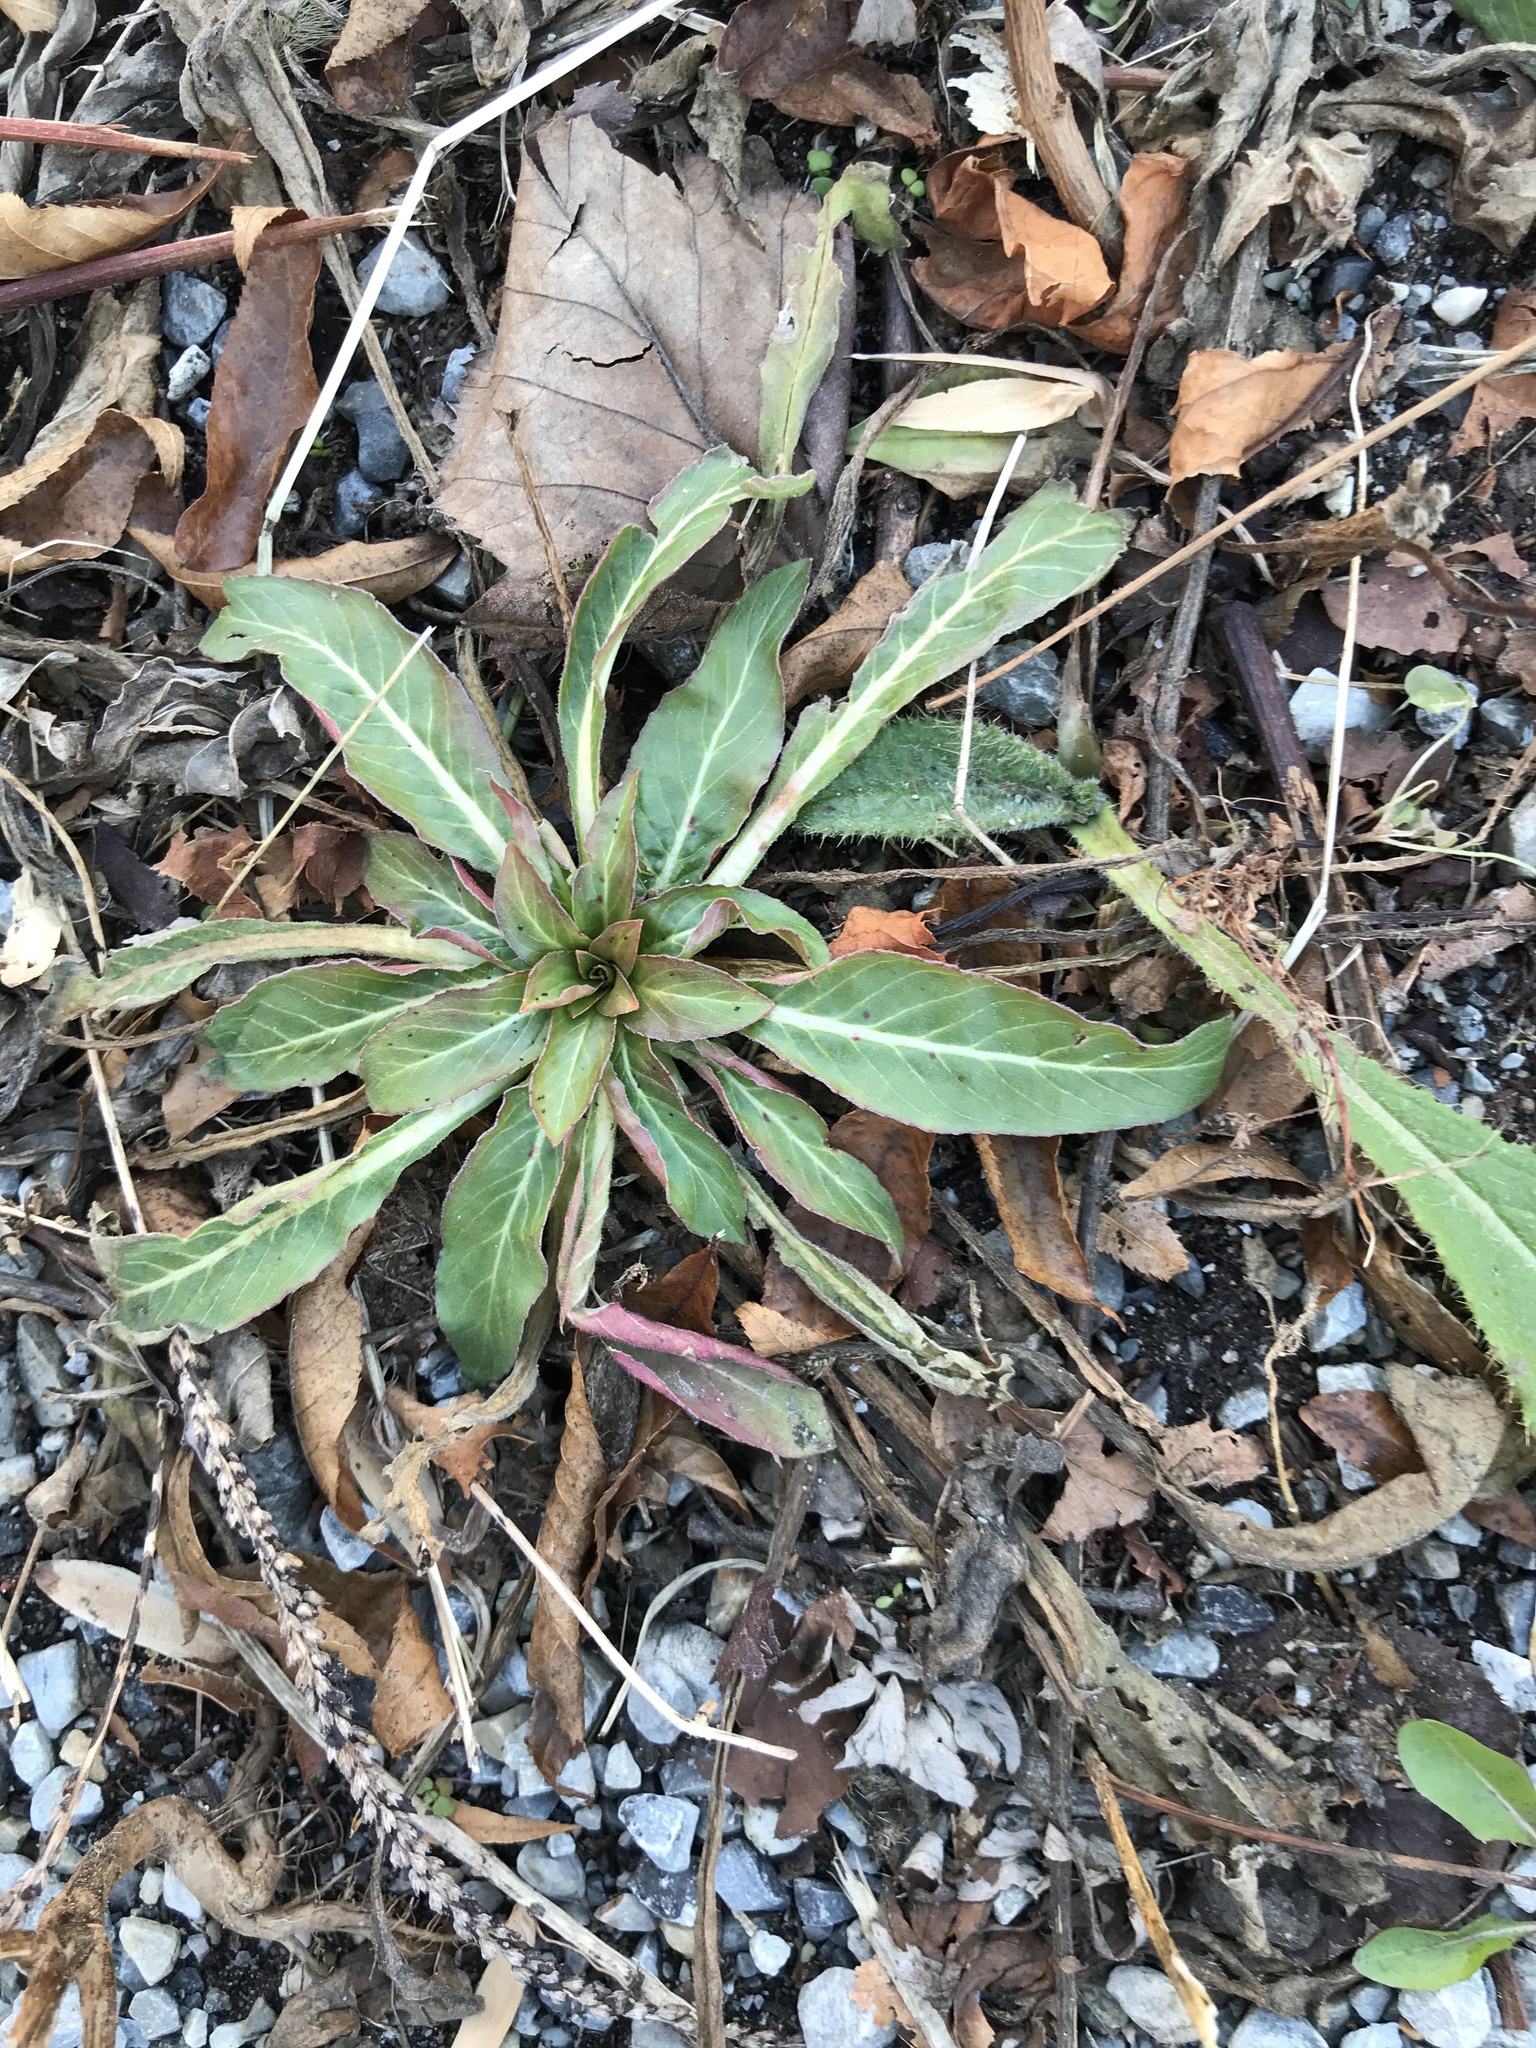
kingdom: Plantae
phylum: Tracheophyta
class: Magnoliopsida
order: Myrtales
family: Onagraceae
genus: Oenothera
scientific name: Oenothera biennis
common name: Common evening-primrose
